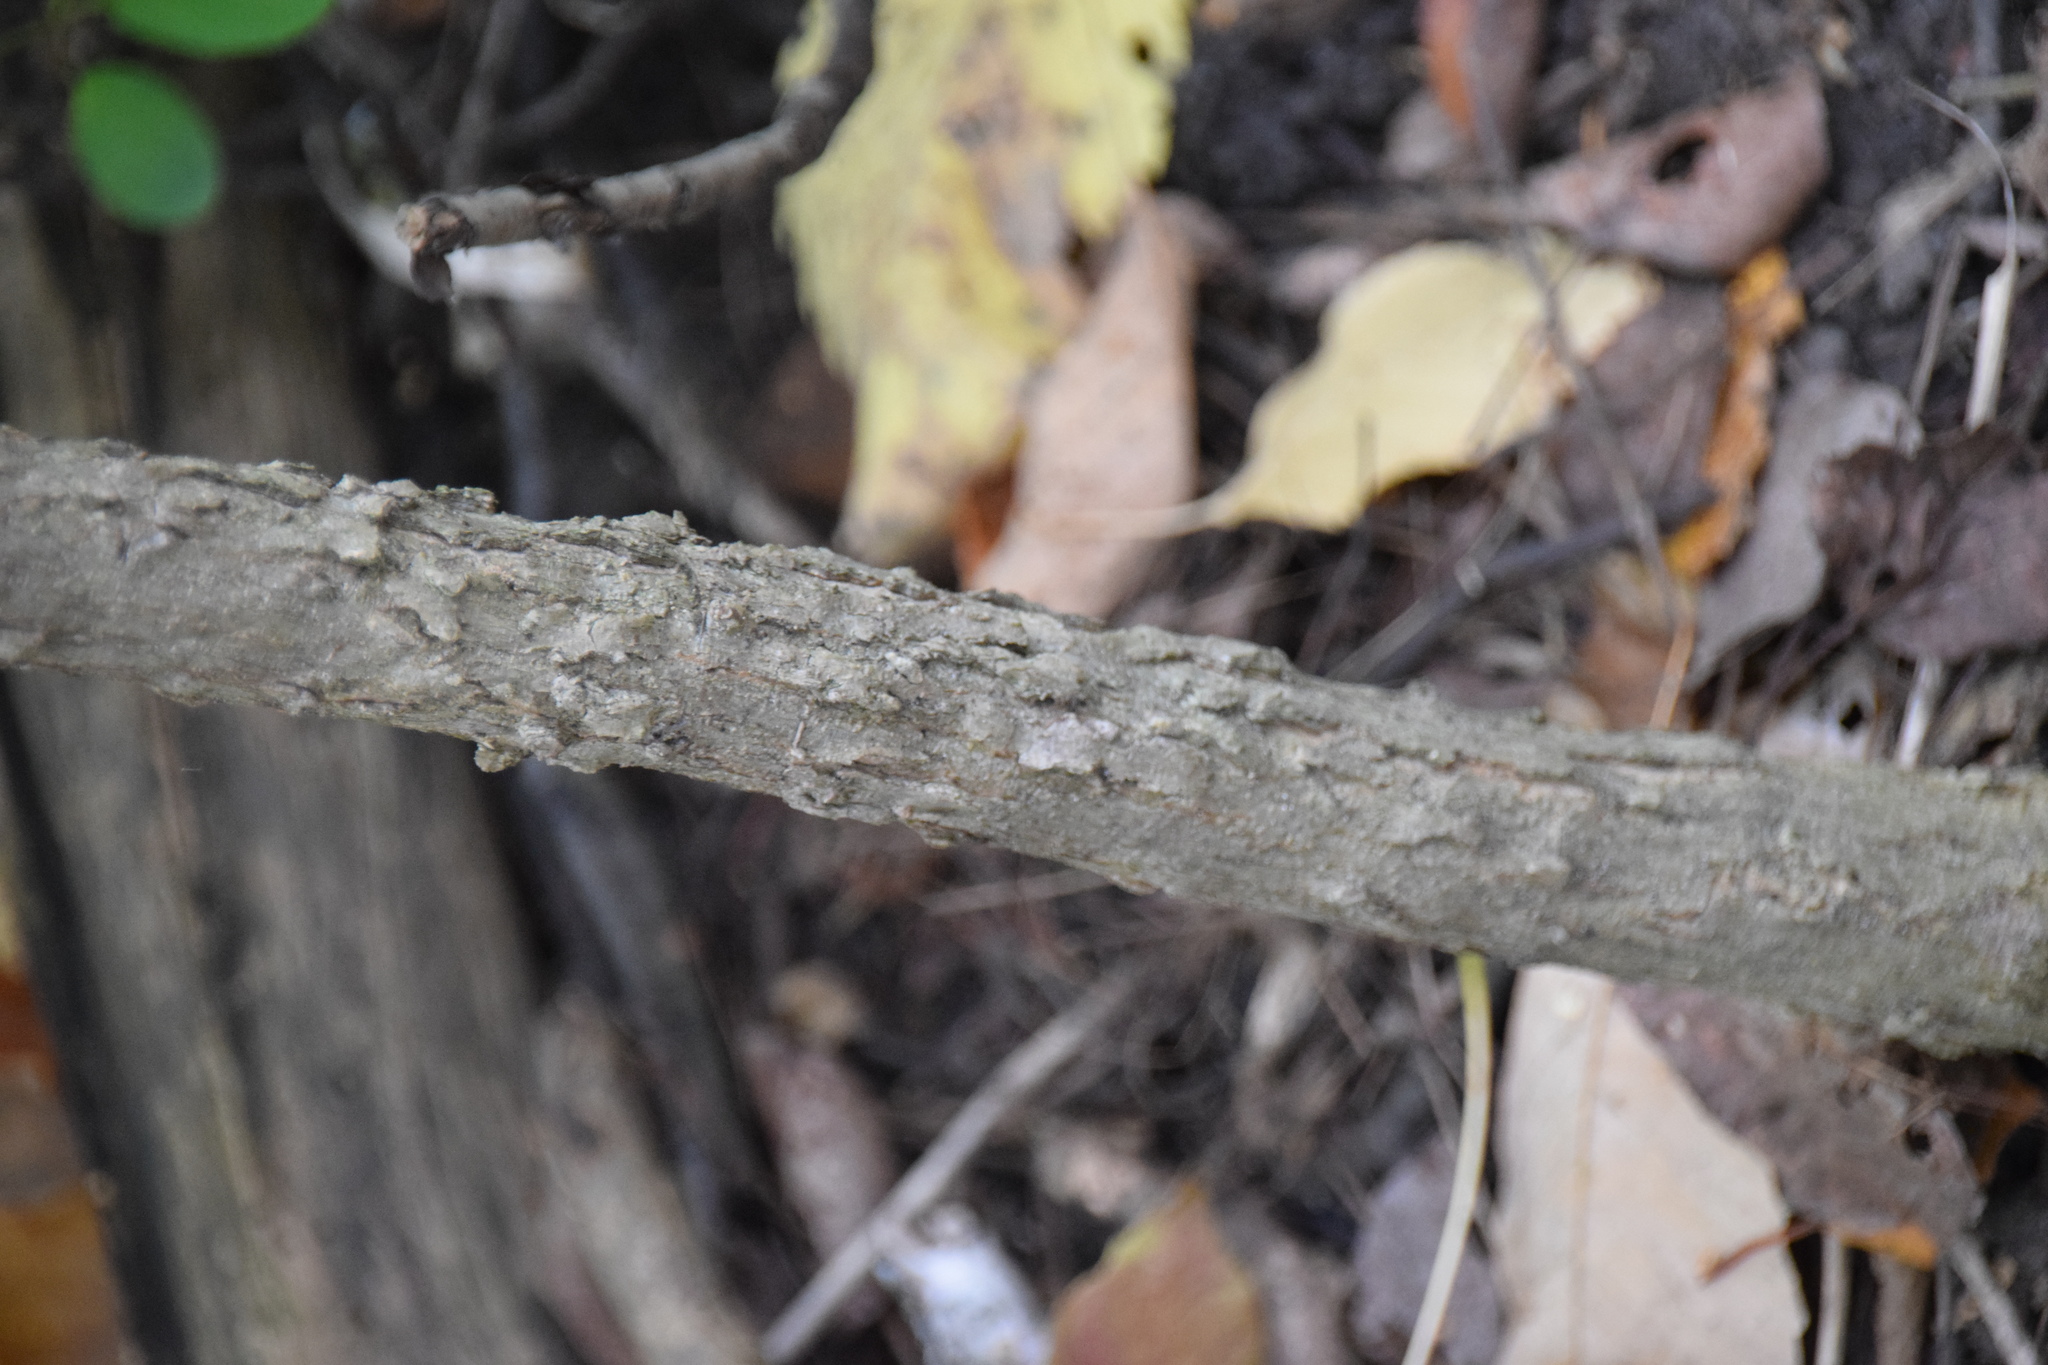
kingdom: Plantae
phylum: Tracheophyta
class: Magnoliopsida
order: Rosales
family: Cannabaceae
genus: Celtis
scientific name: Celtis occidentalis
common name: Common hackberry
